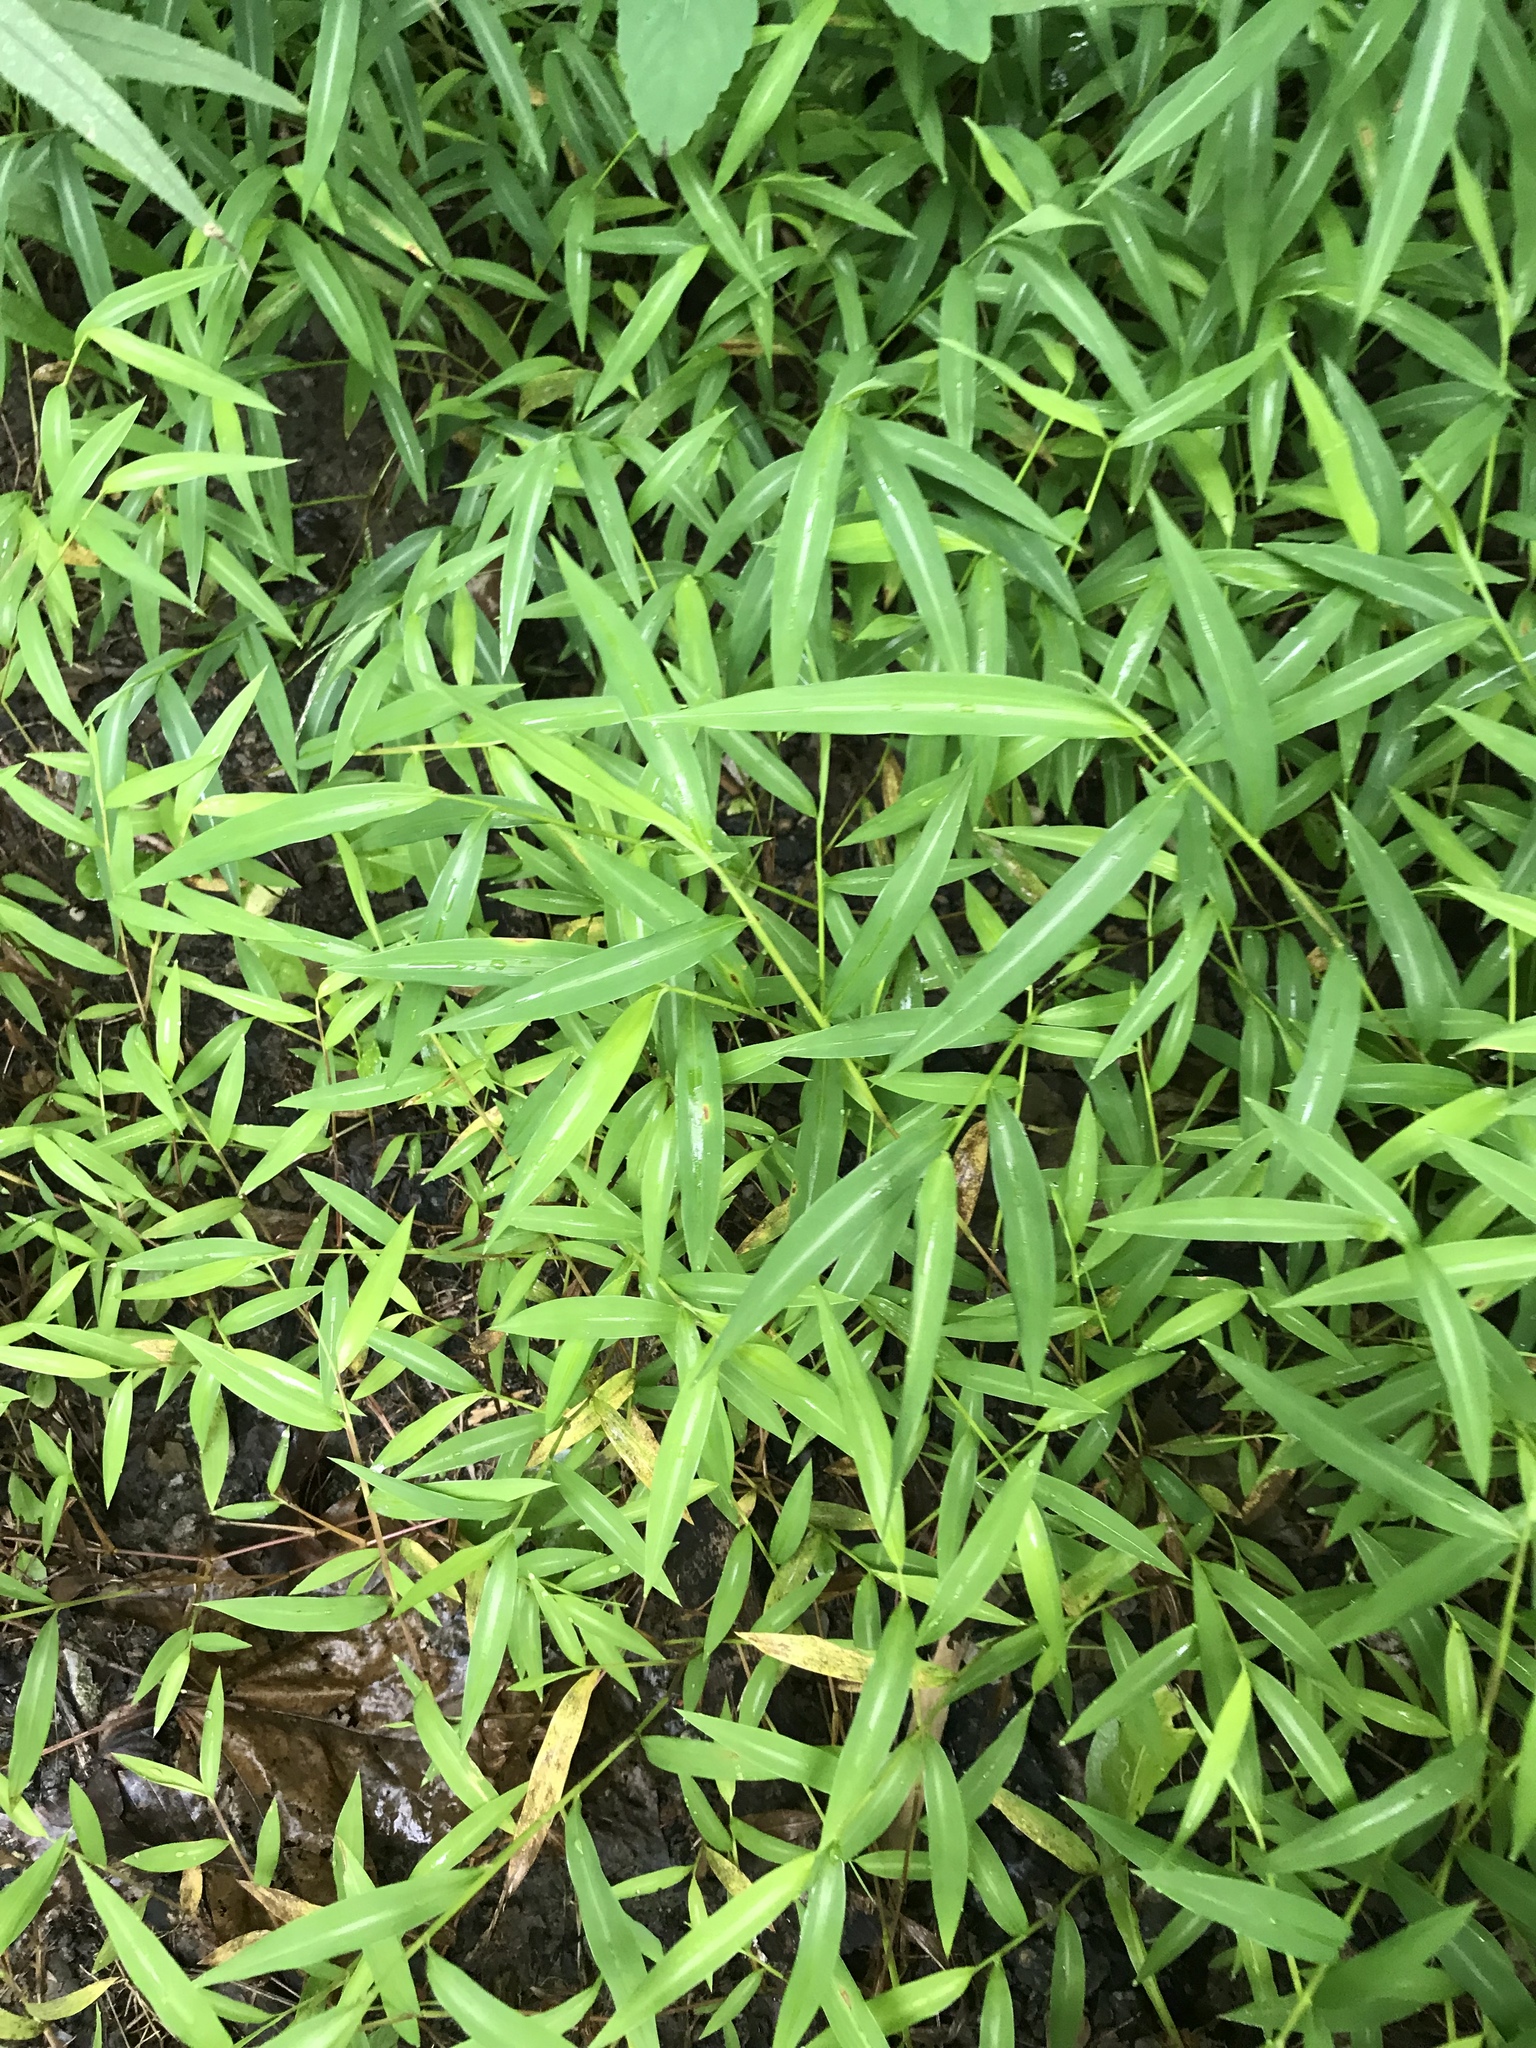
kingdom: Plantae
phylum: Tracheophyta
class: Liliopsida
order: Poales
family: Poaceae
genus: Microstegium
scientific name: Microstegium vimineum
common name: Japanese stiltgrass
